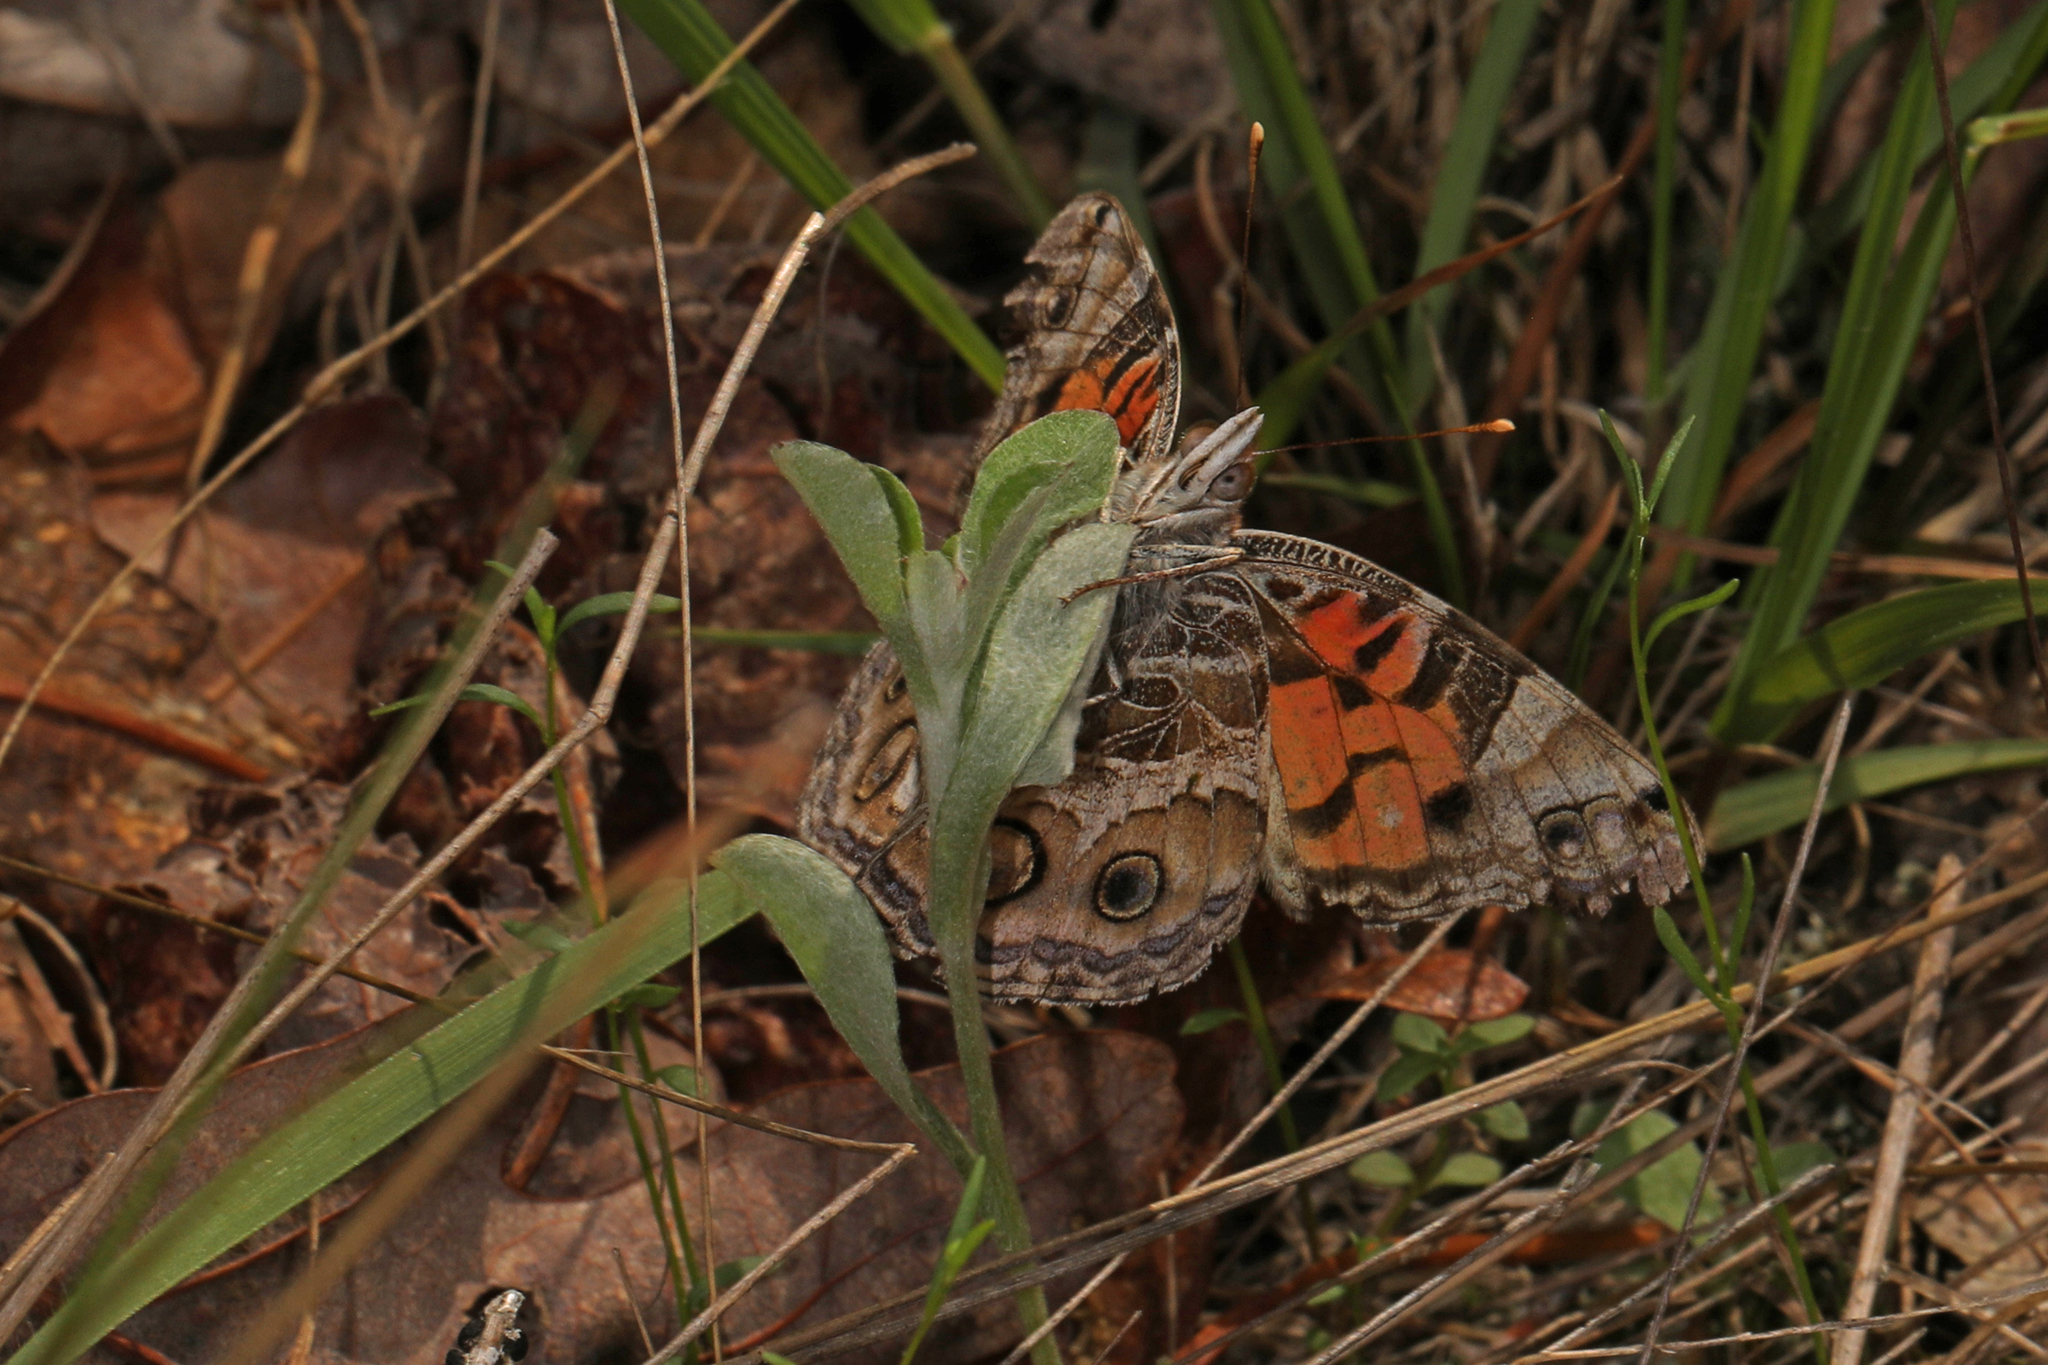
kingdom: Animalia
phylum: Arthropoda
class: Insecta
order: Lepidoptera
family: Nymphalidae
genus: Vanessa
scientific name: Vanessa virginiensis
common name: American lady
